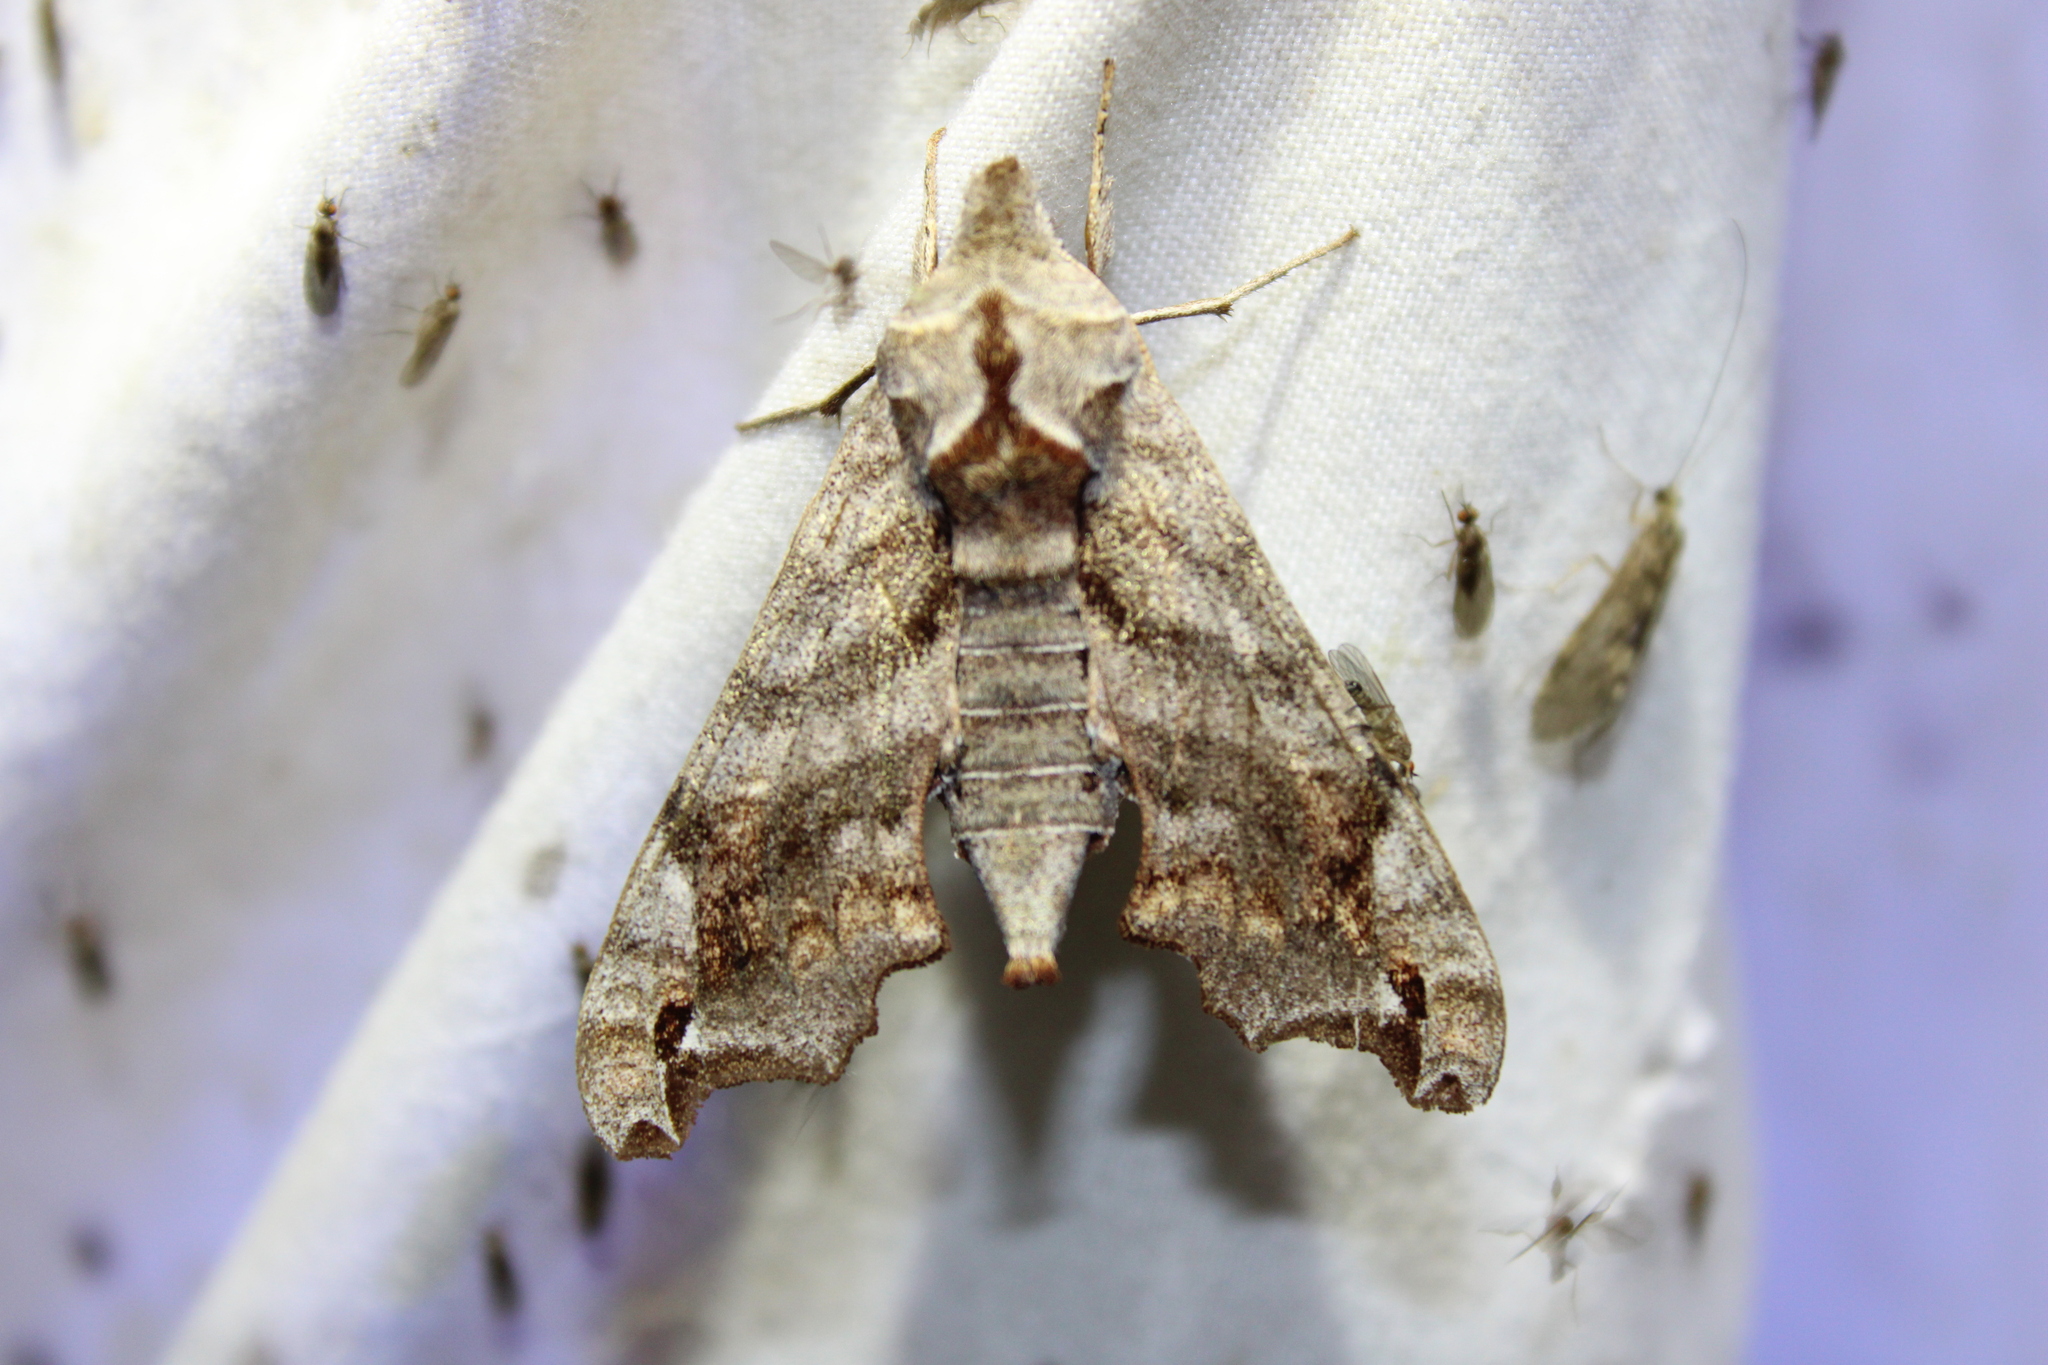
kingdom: Animalia
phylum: Arthropoda
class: Insecta
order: Lepidoptera
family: Sphingidae
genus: Deidamia
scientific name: Deidamia inscriptum
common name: Lettered sphinx
